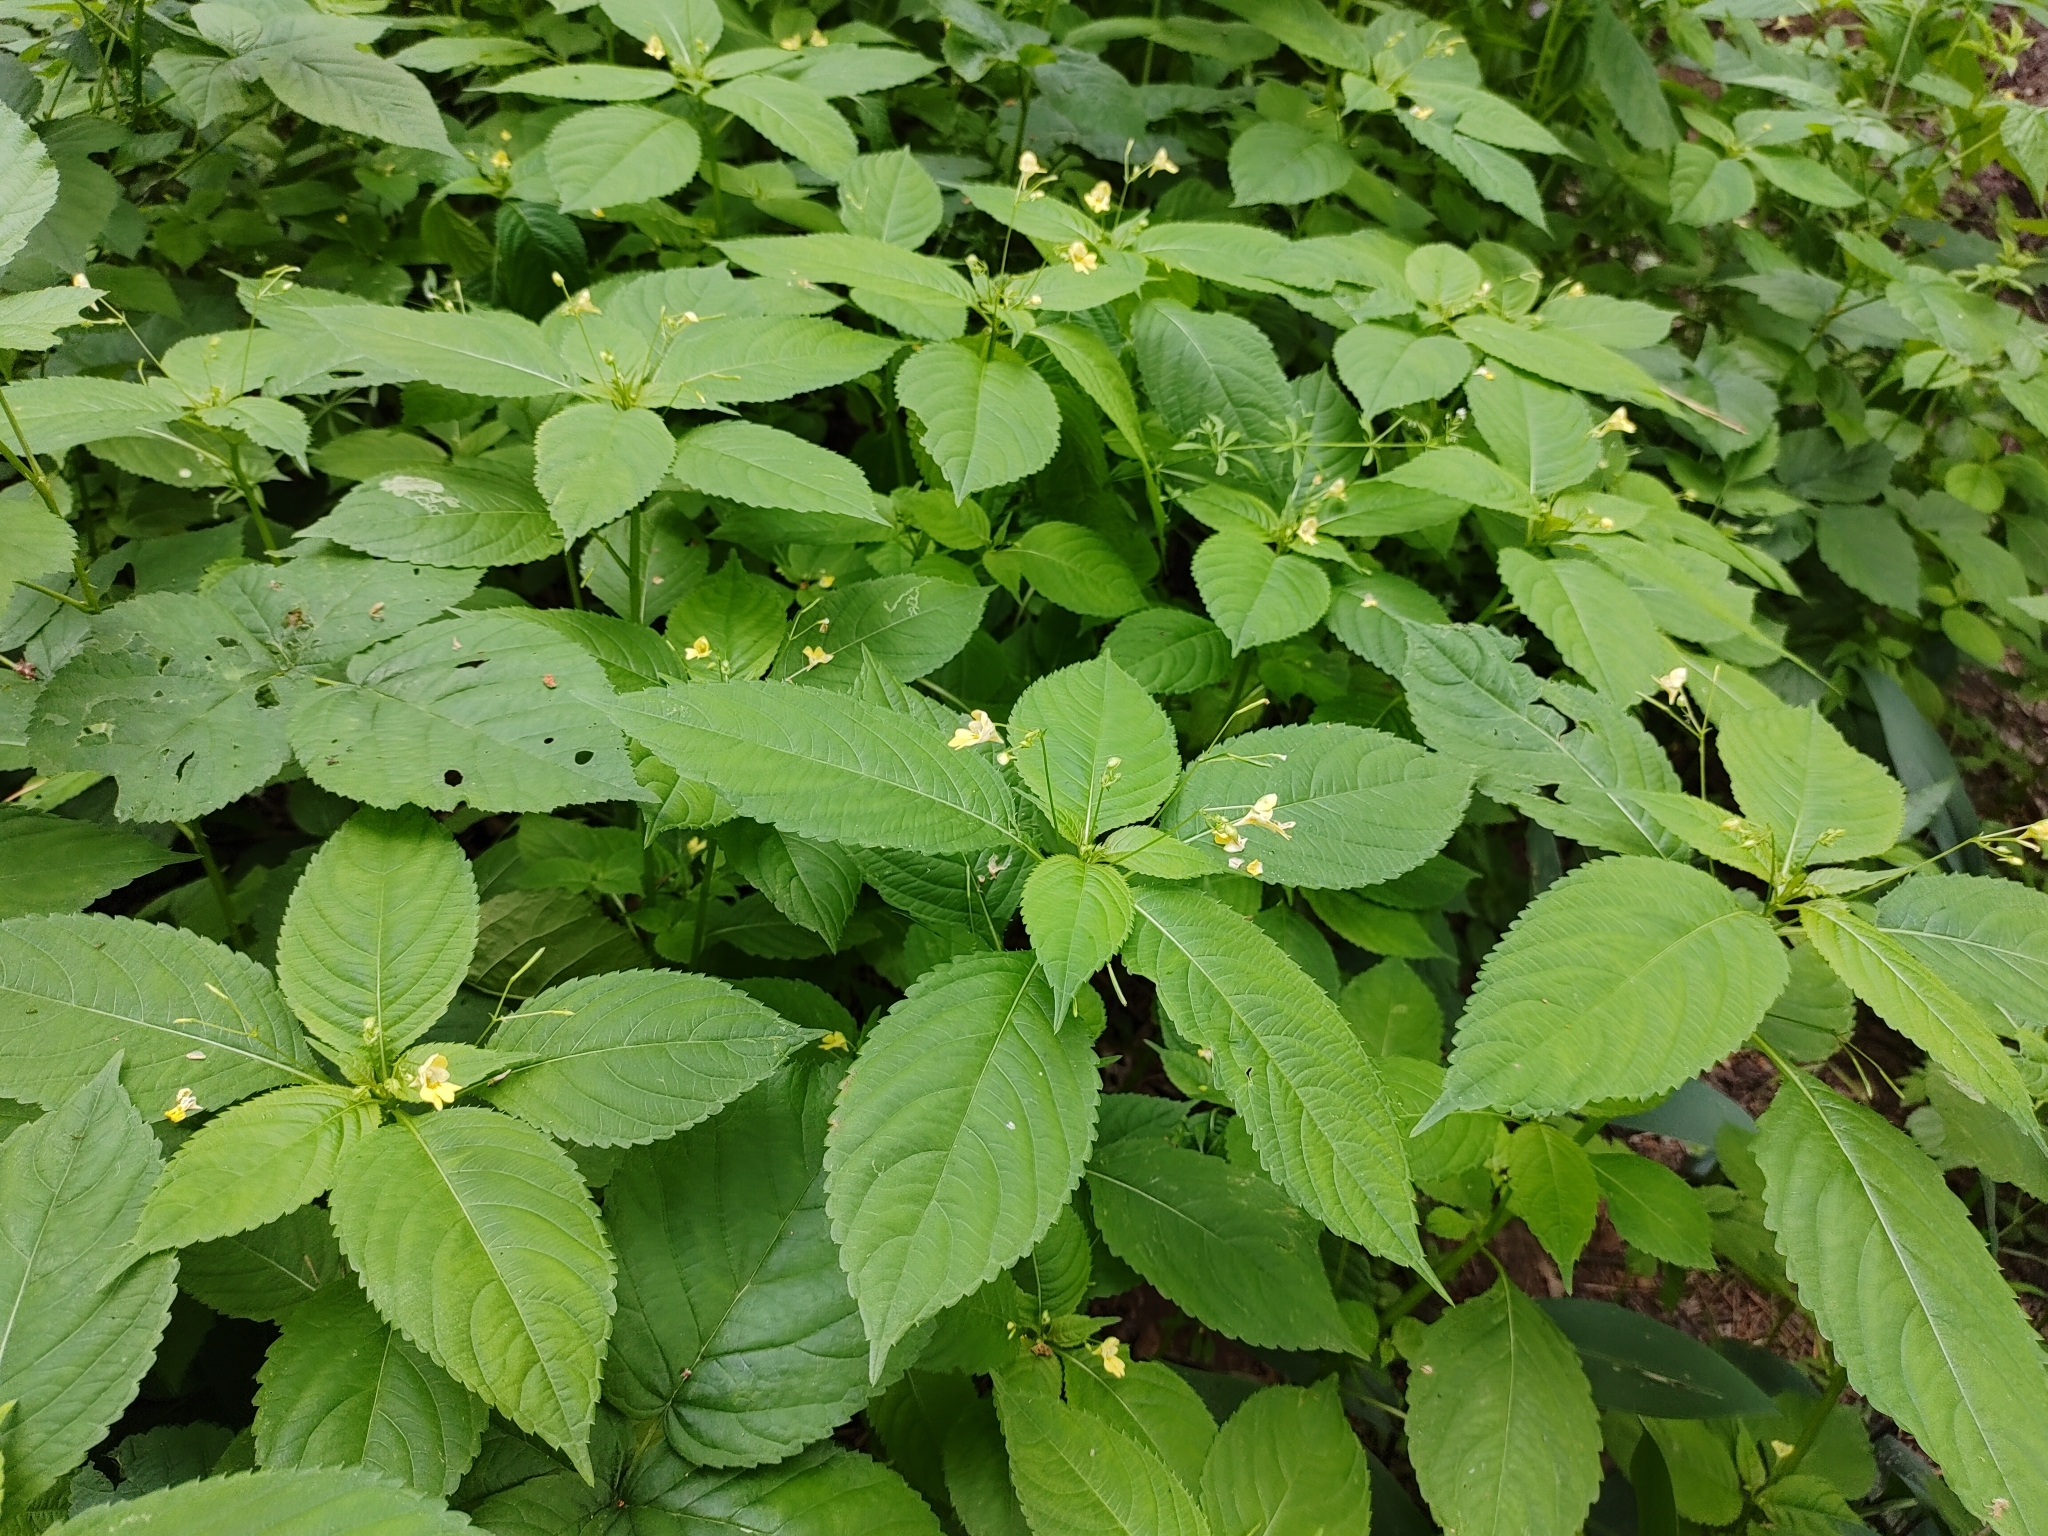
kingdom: Plantae
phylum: Tracheophyta
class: Magnoliopsida
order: Ericales
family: Balsaminaceae
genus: Impatiens
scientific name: Impatiens parviflora
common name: Small balsam
